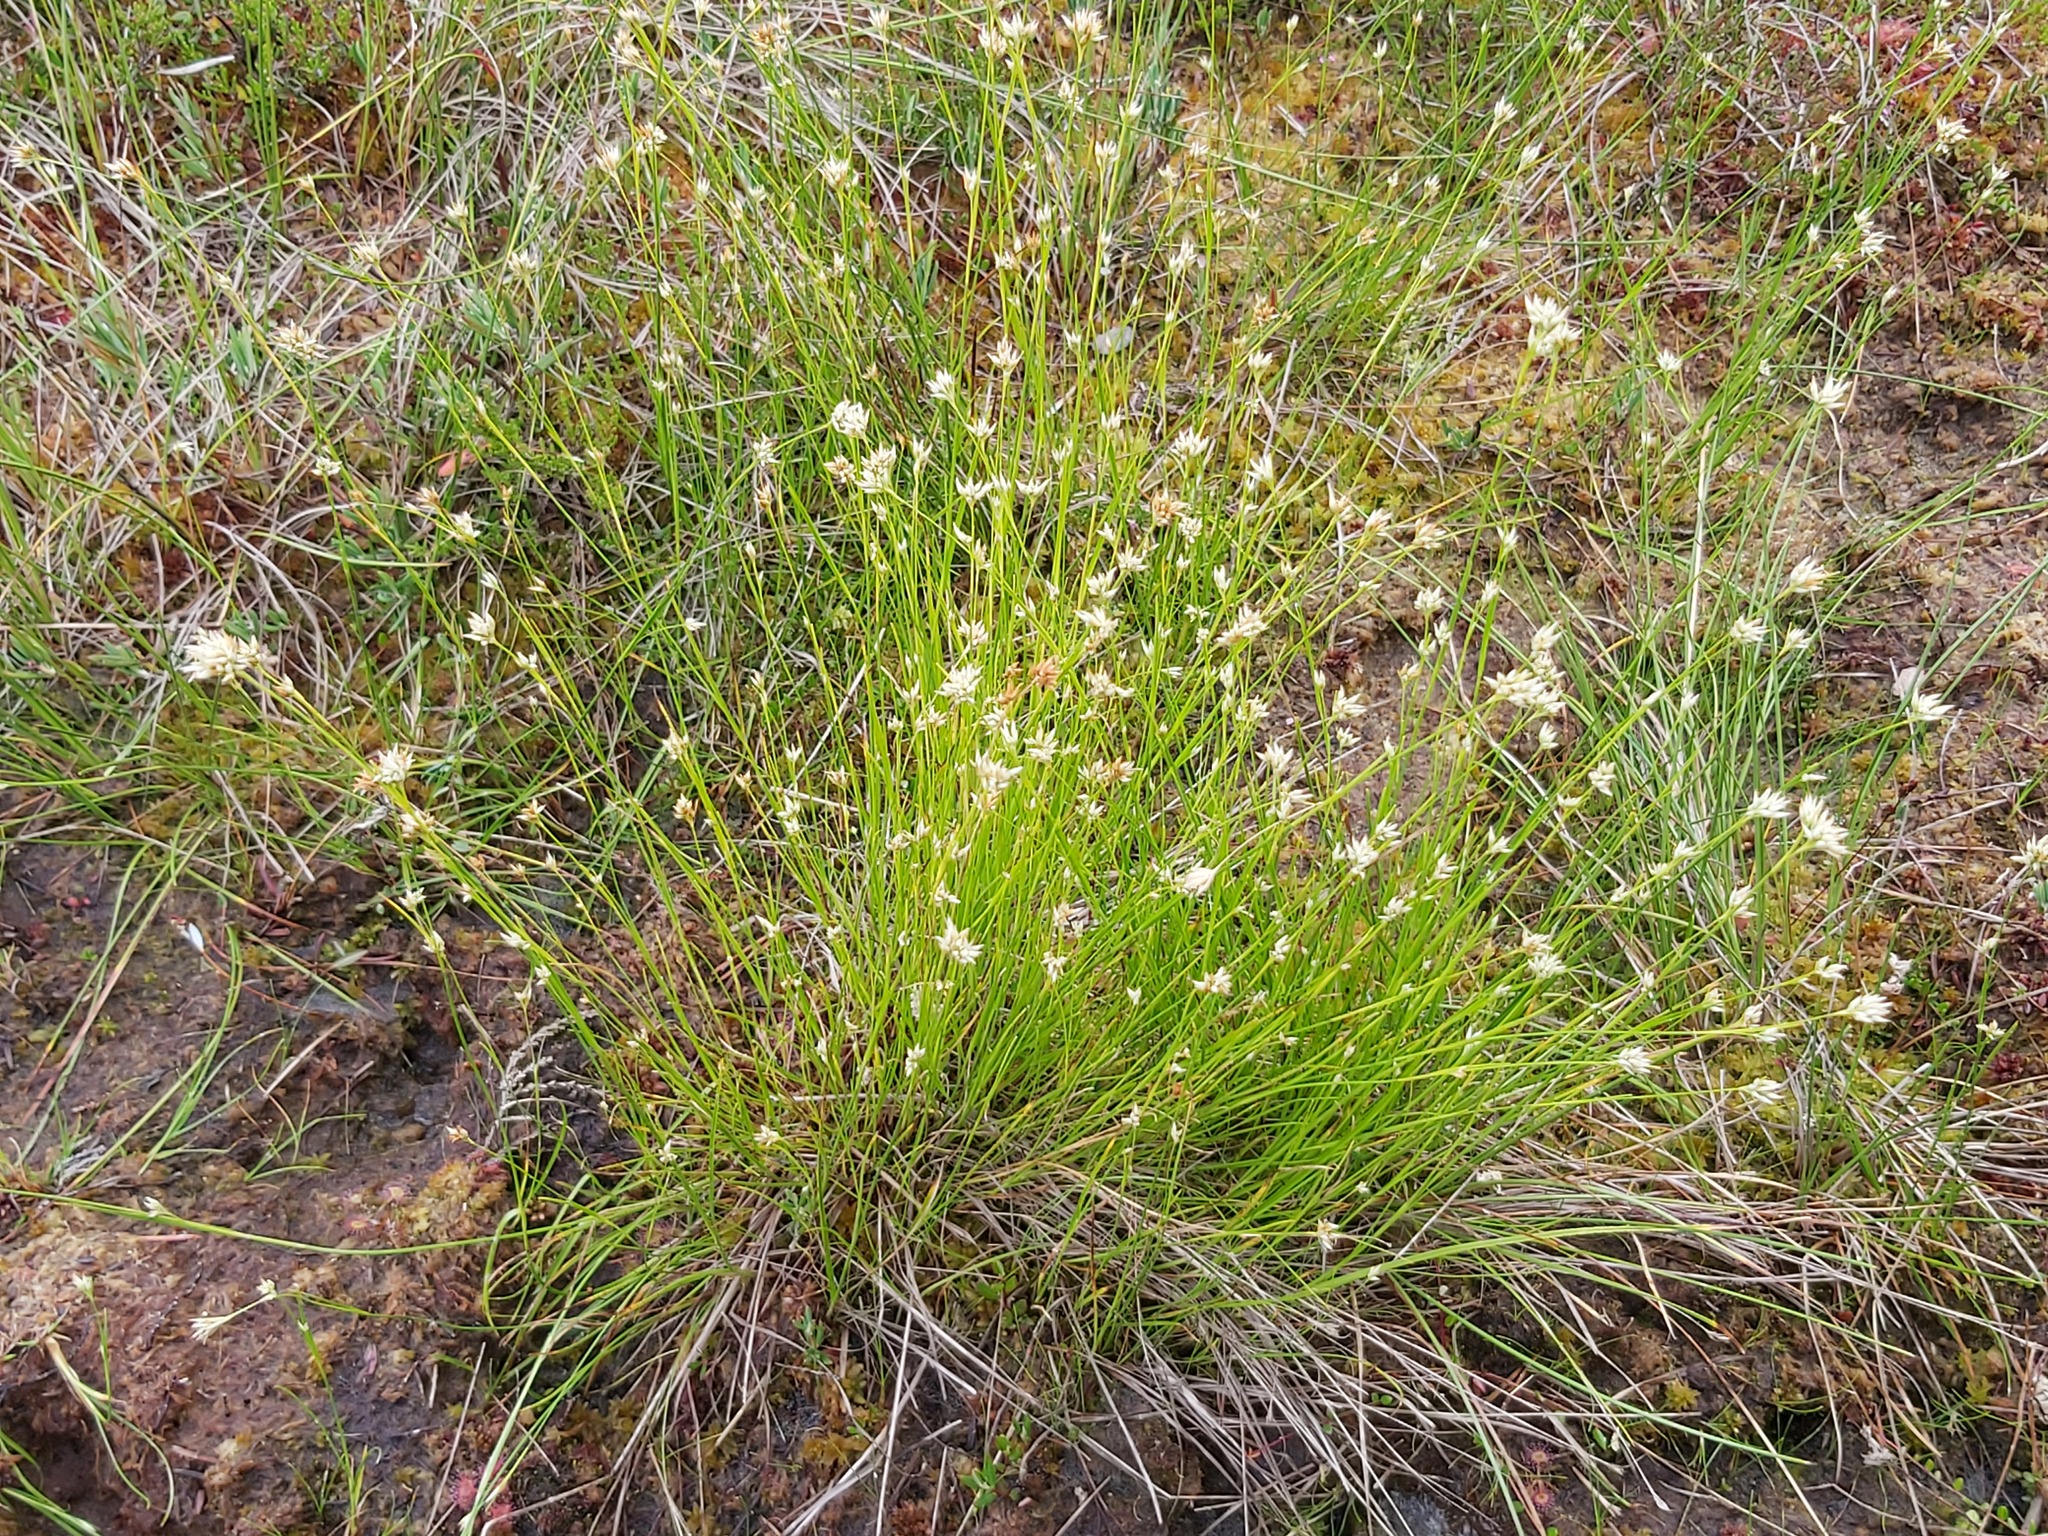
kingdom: Plantae
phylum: Tracheophyta
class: Liliopsida
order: Poales
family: Cyperaceae
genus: Rhynchospora
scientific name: Rhynchospora alba
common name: White beak-sedge
